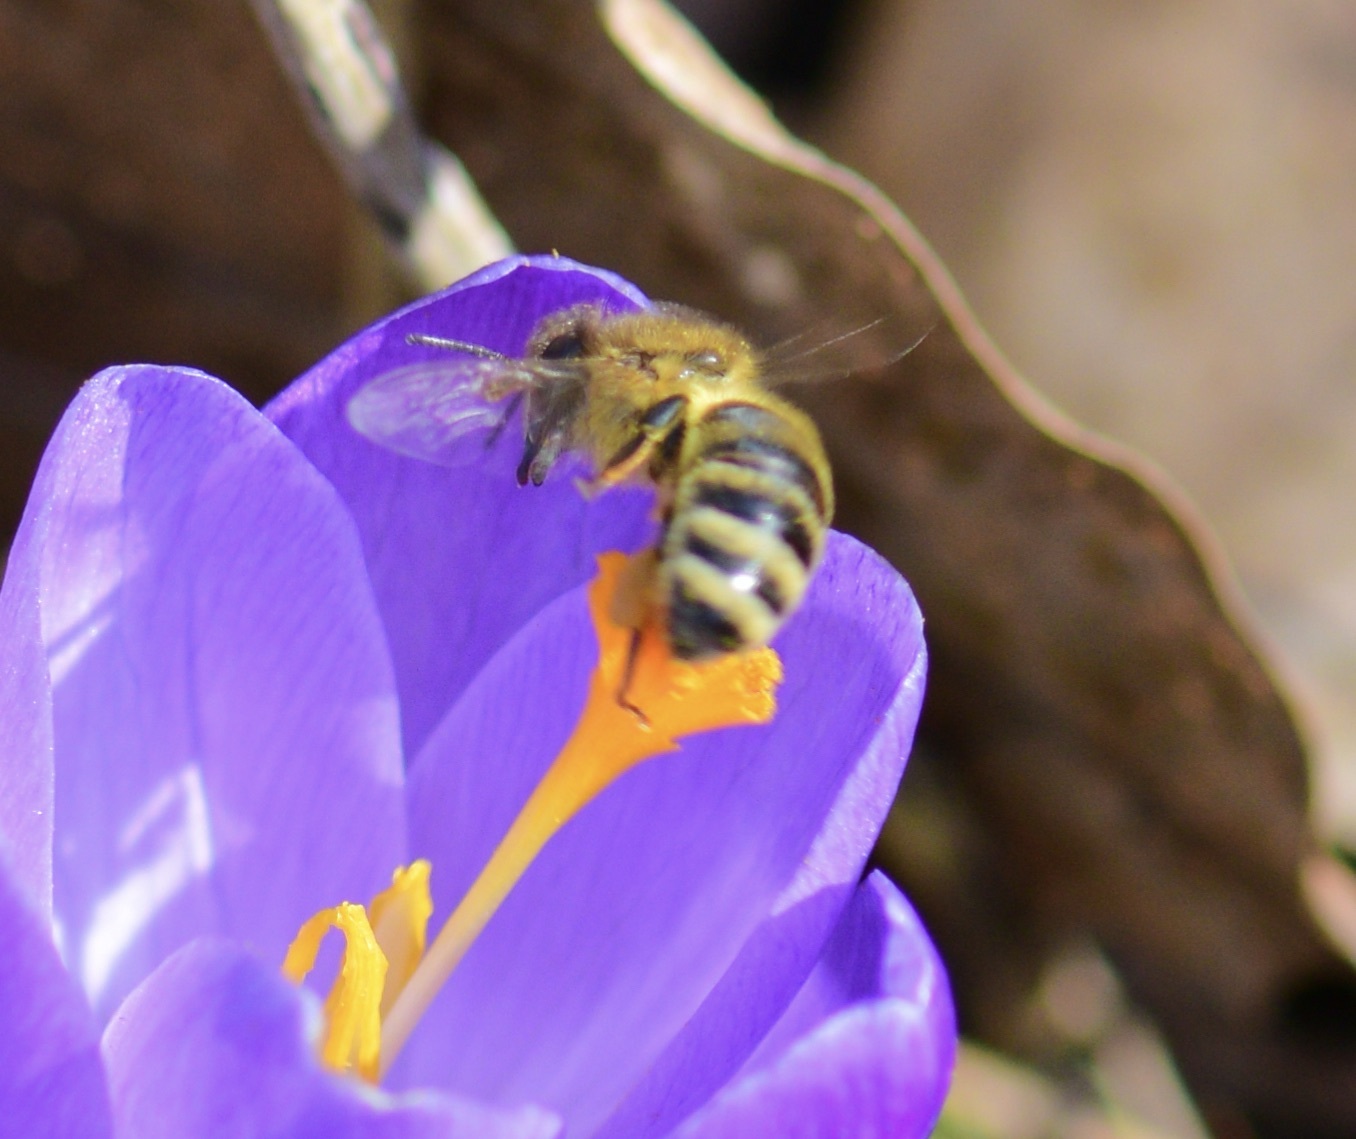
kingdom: Animalia
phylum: Arthropoda
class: Insecta
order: Hymenoptera
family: Apidae
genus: Apis
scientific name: Apis mellifera
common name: Honey bee
